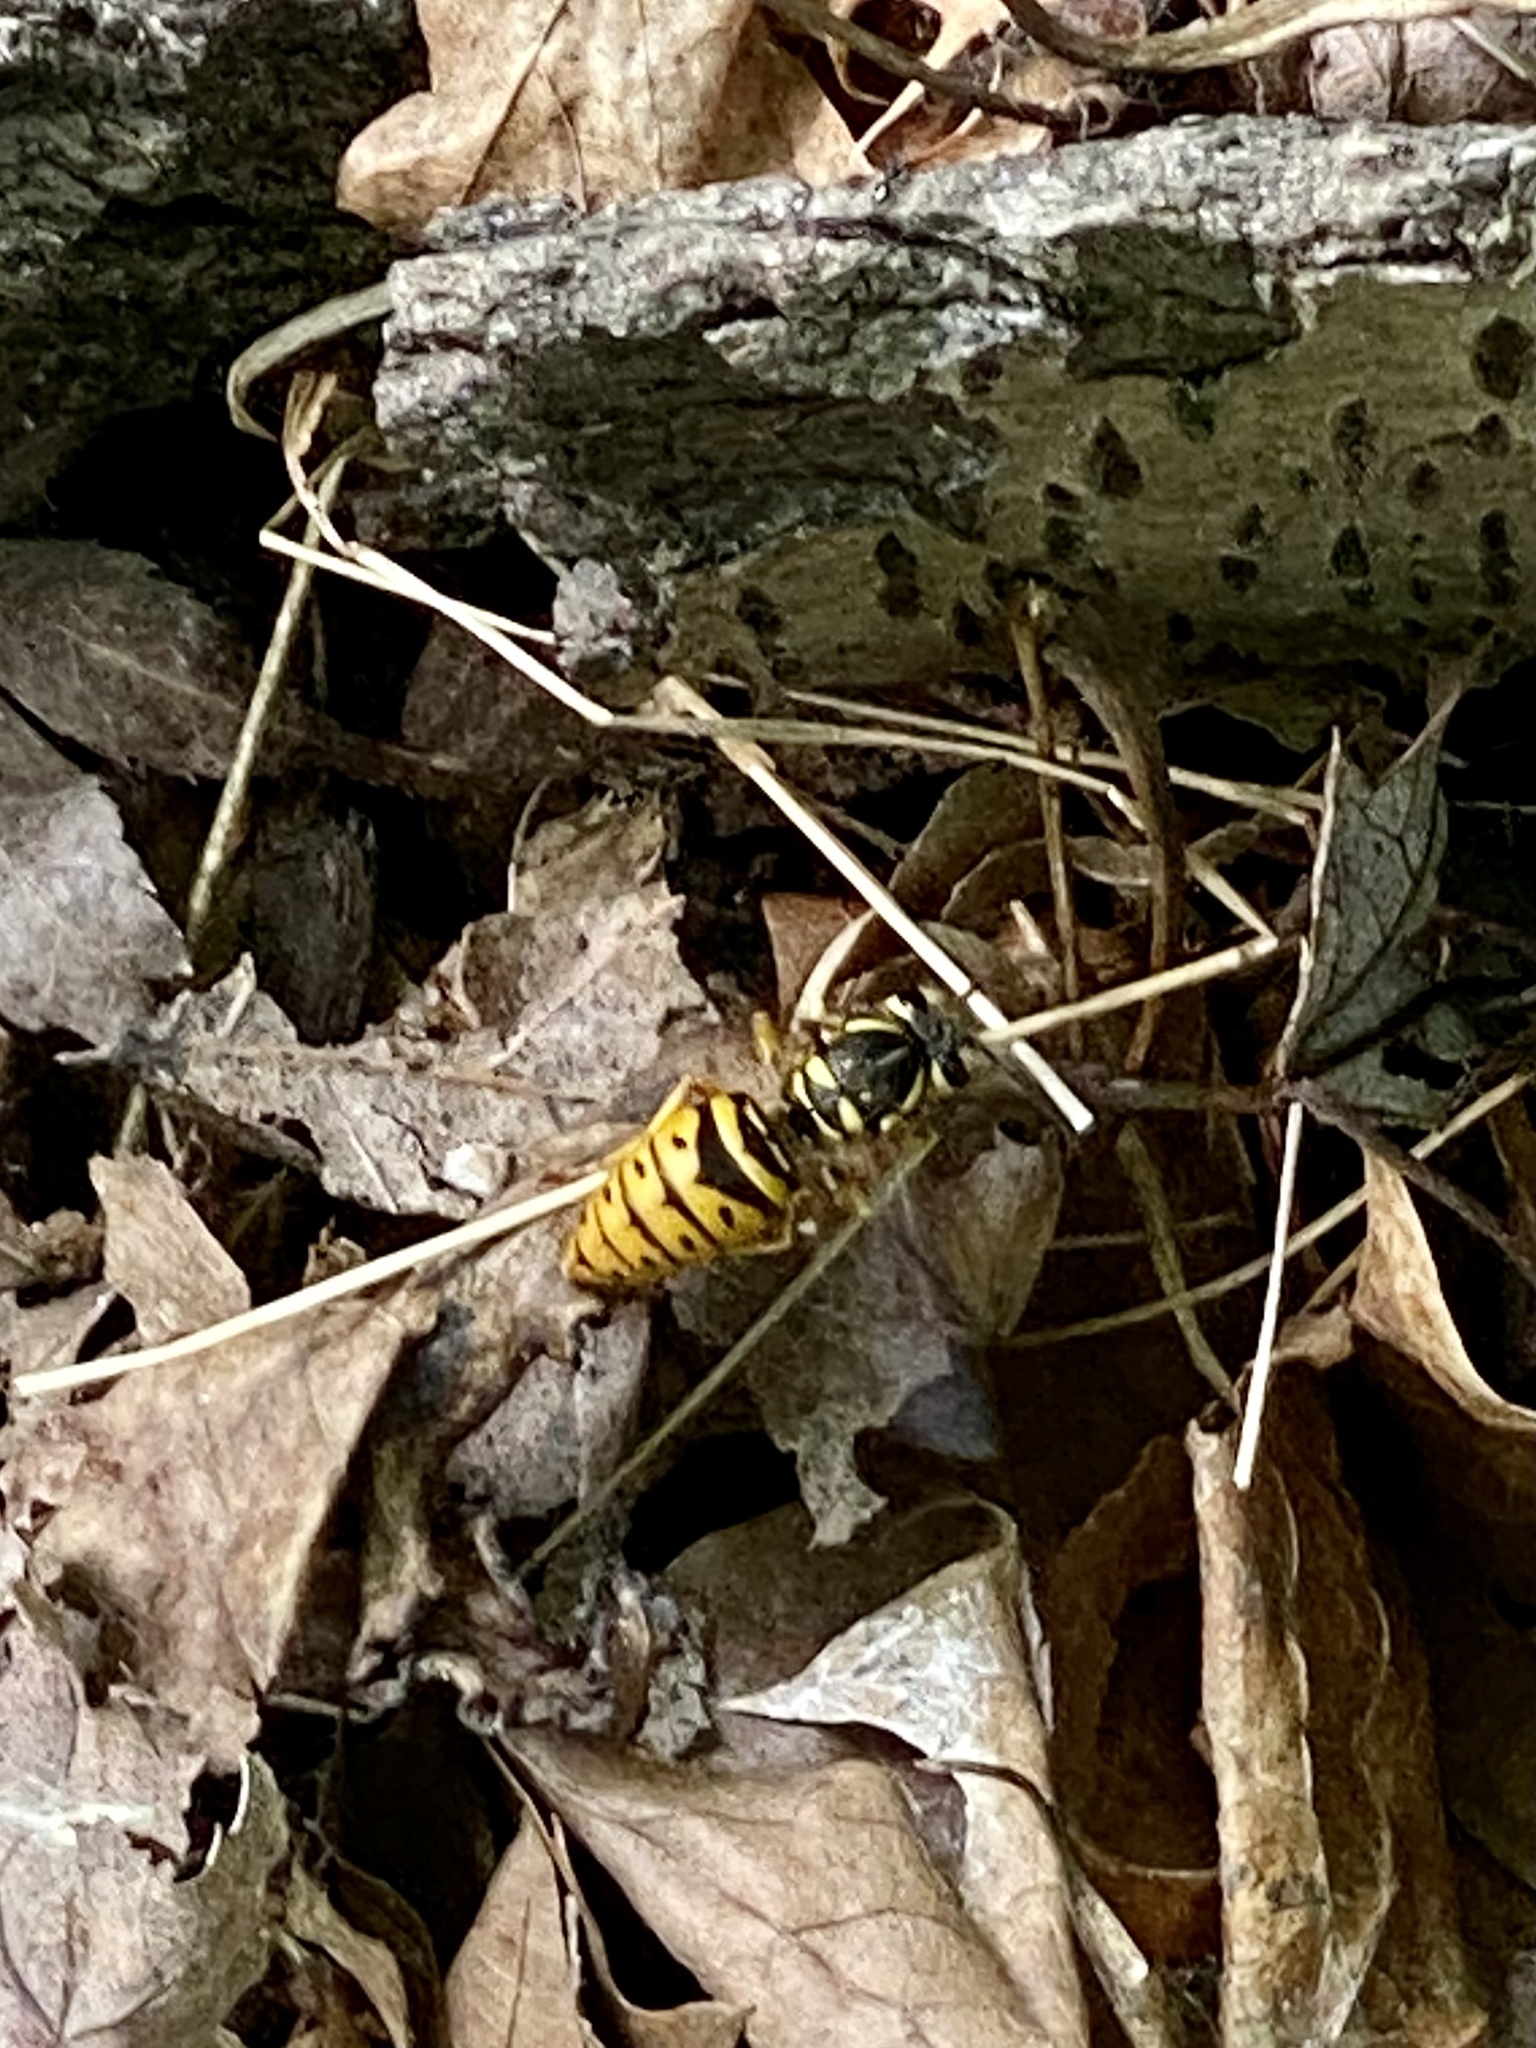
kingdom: Animalia
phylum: Arthropoda
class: Insecta
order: Hymenoptera
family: Vespidae
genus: Vespula
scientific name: Vespula maculifrons
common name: Eastern yellowjacket
